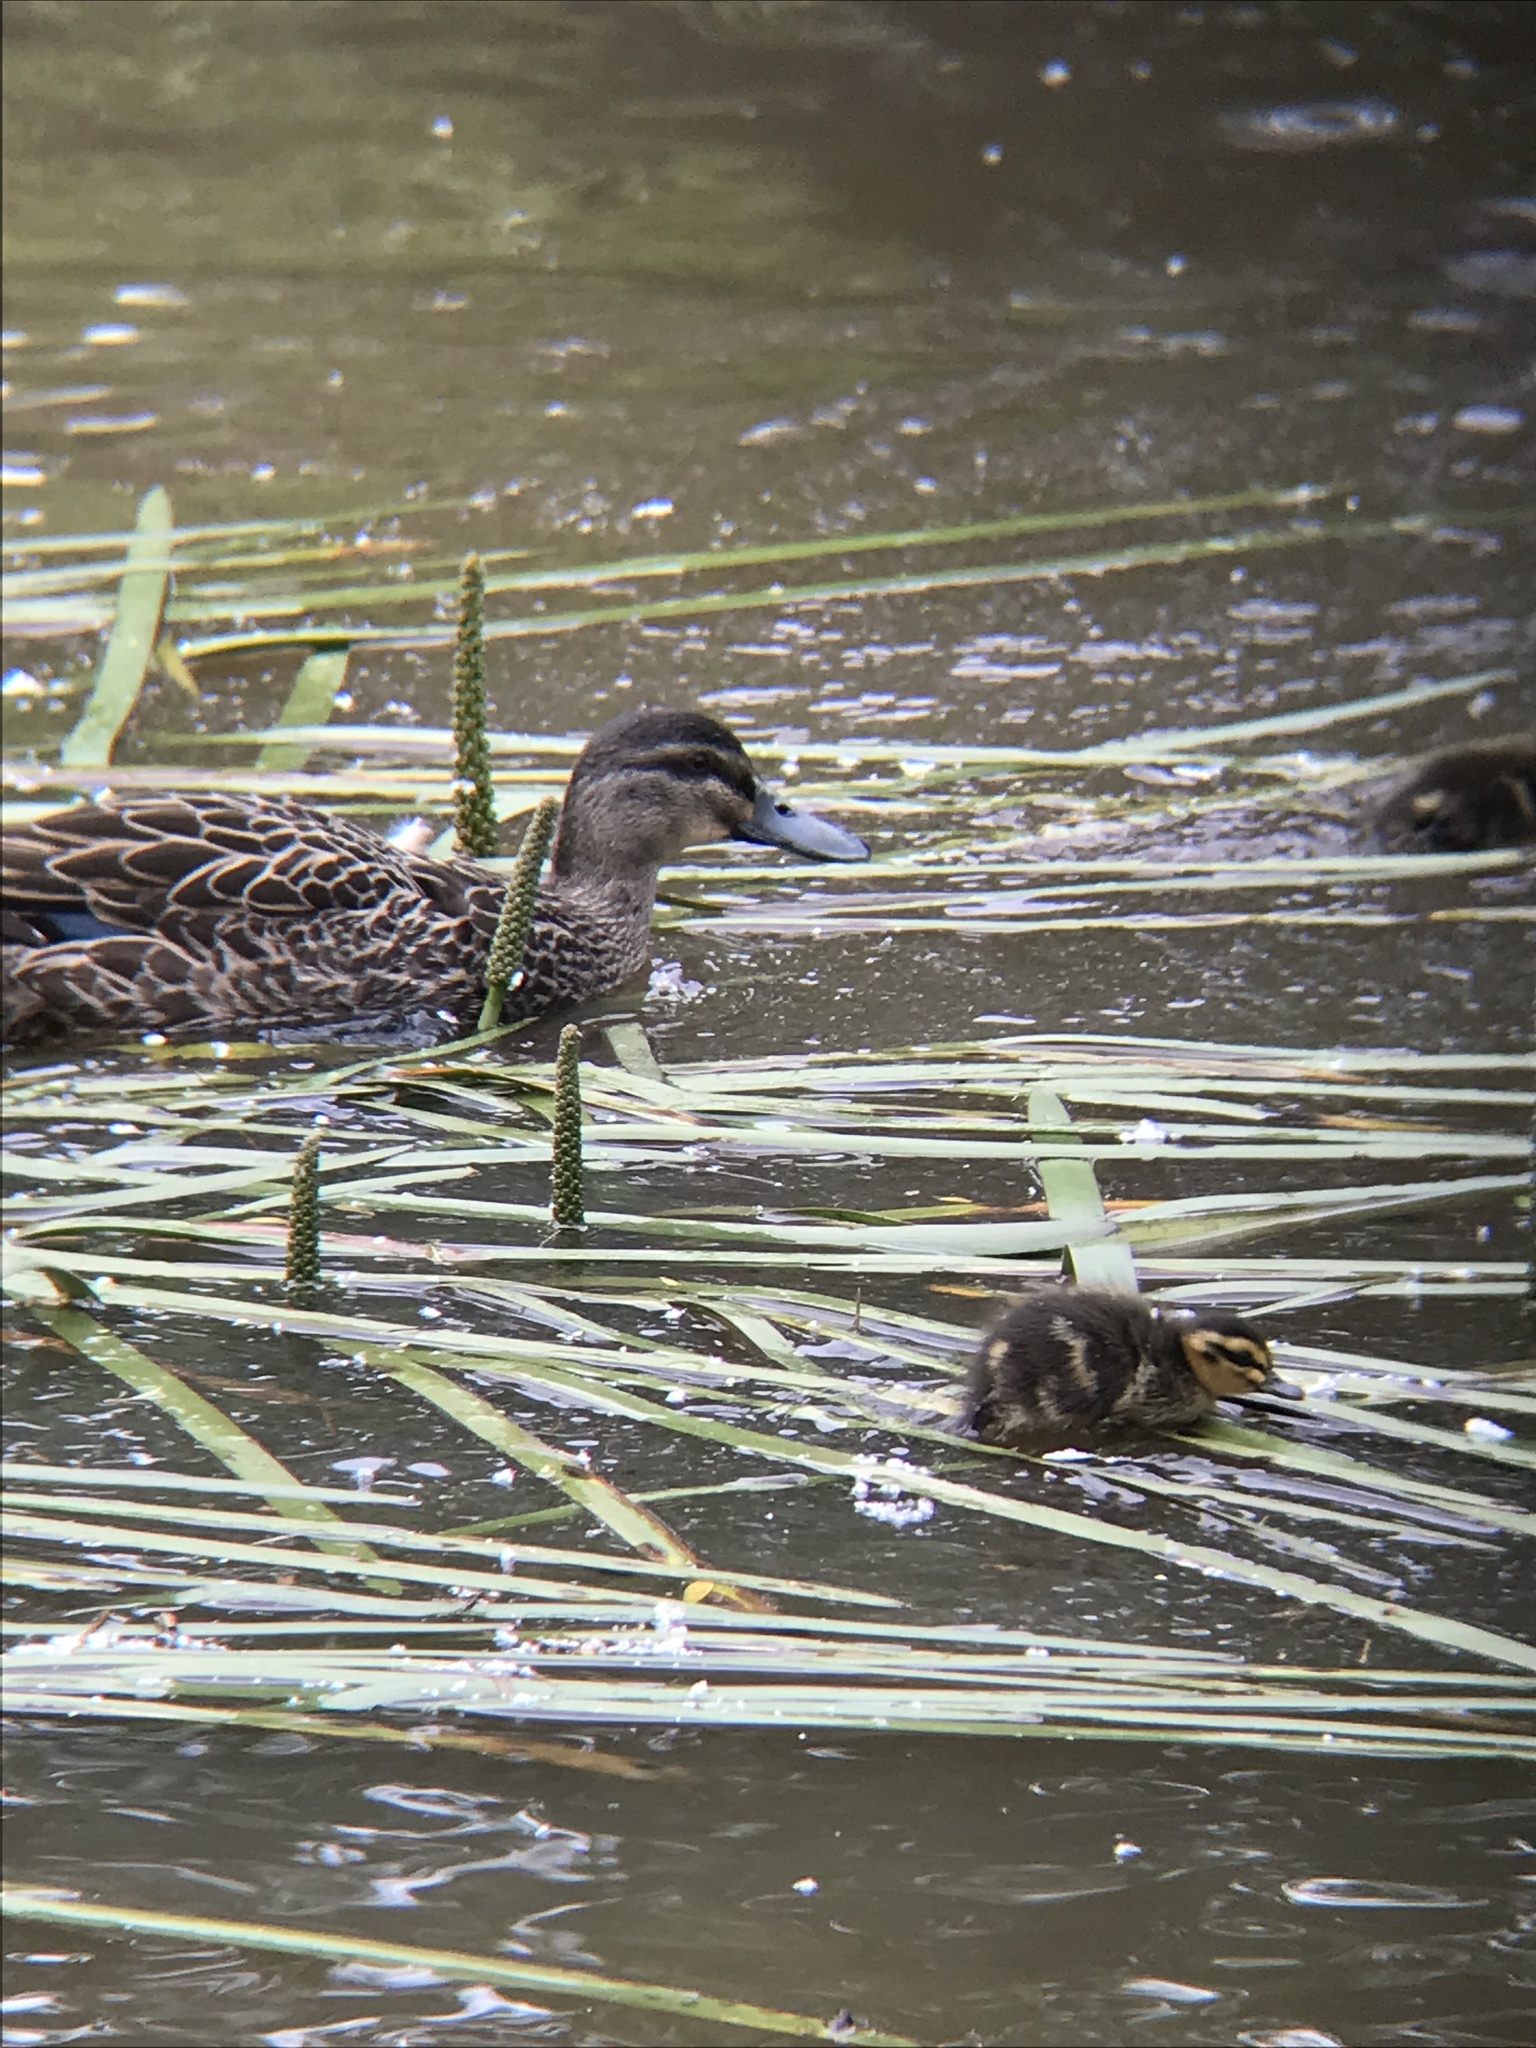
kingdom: Animalia
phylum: Chordata
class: Aves
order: Anseriformes
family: Anatidae
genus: Anas
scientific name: Anas
